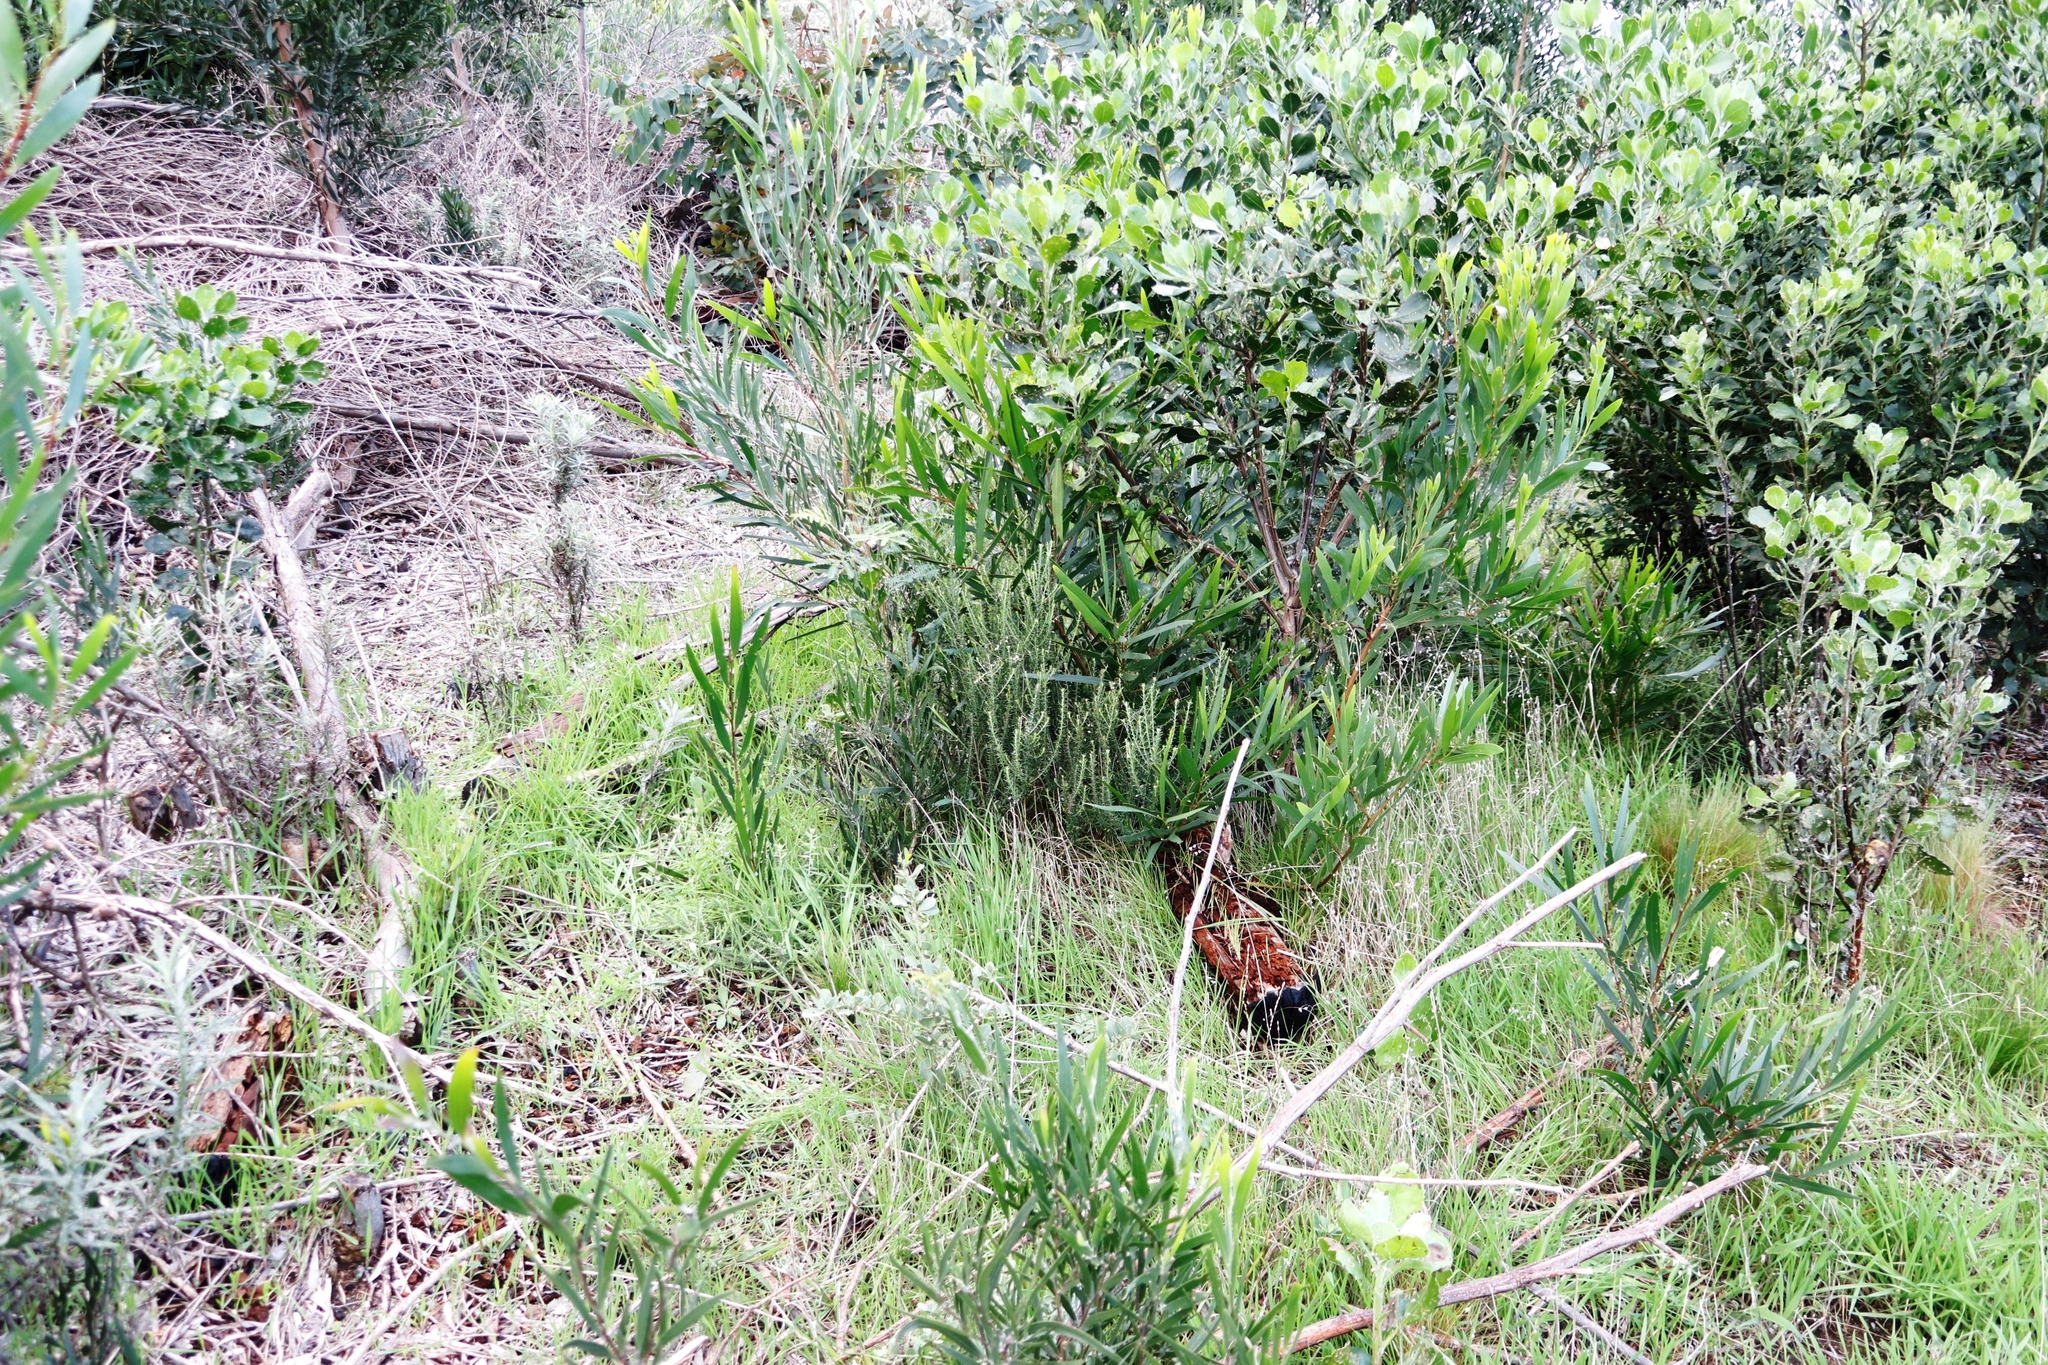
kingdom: Plantae
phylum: Tracheophyta
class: Magnoliopsida
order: Fabales
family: Fabaceae
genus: Acacia
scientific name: Acacia melanoxylon
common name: Blackwood
